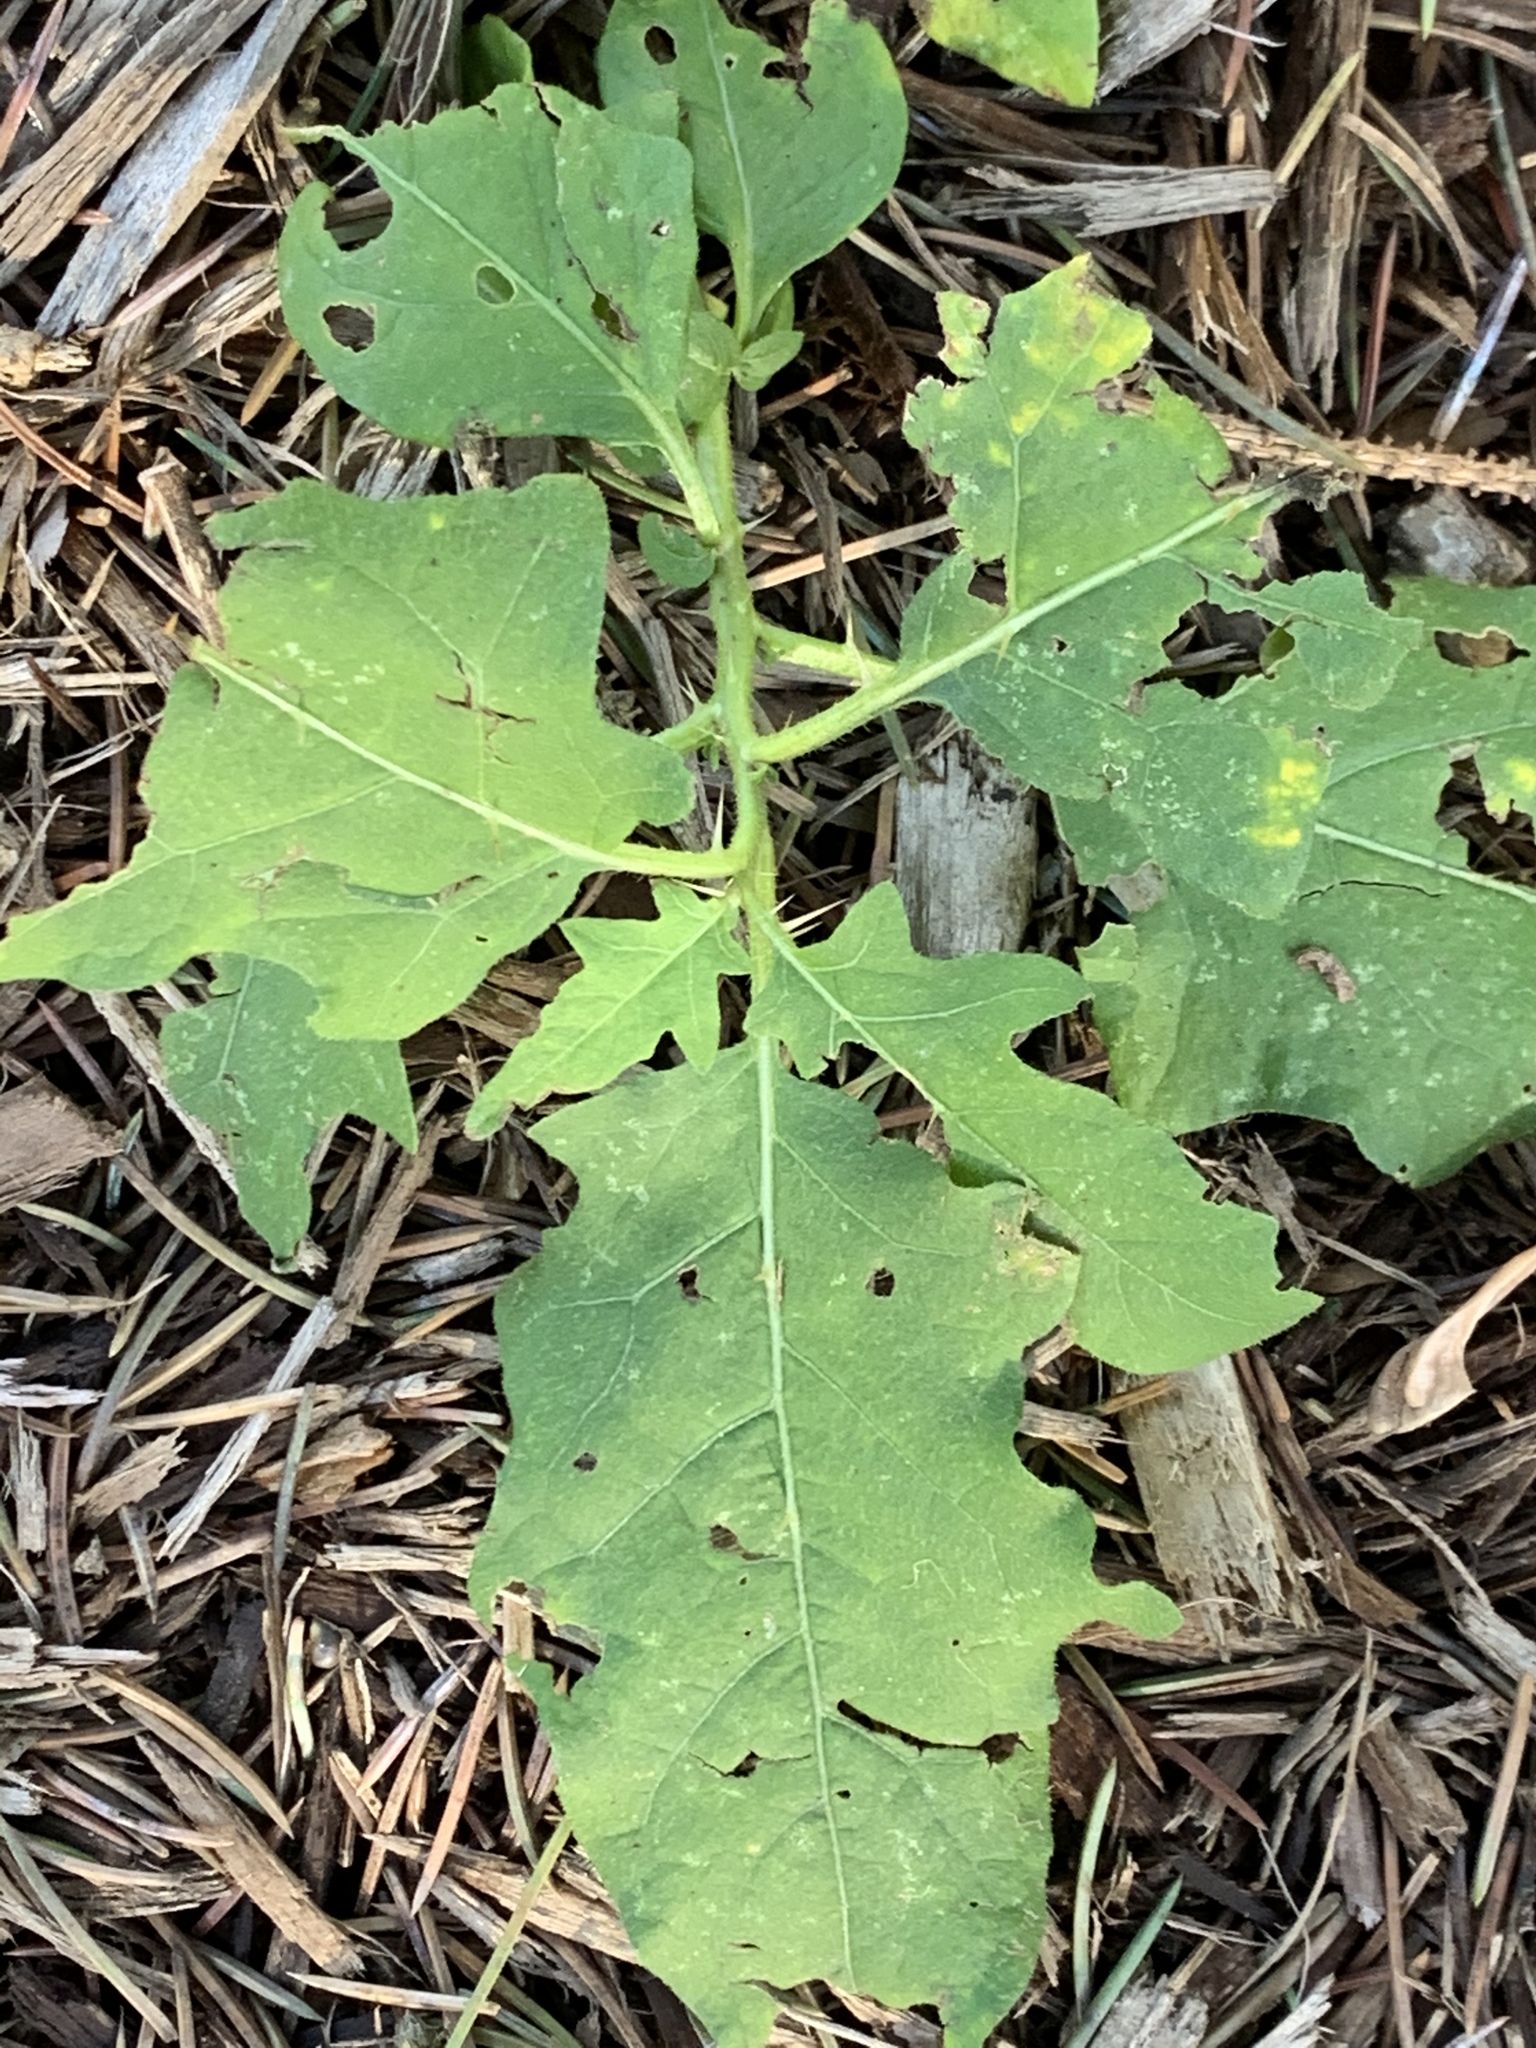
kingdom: Plantae
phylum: Tracheophyta
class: Magnoliopsida
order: Solanales
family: Solanaceae
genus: Solanum
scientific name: Solanum carolinense
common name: Horse-nettle
